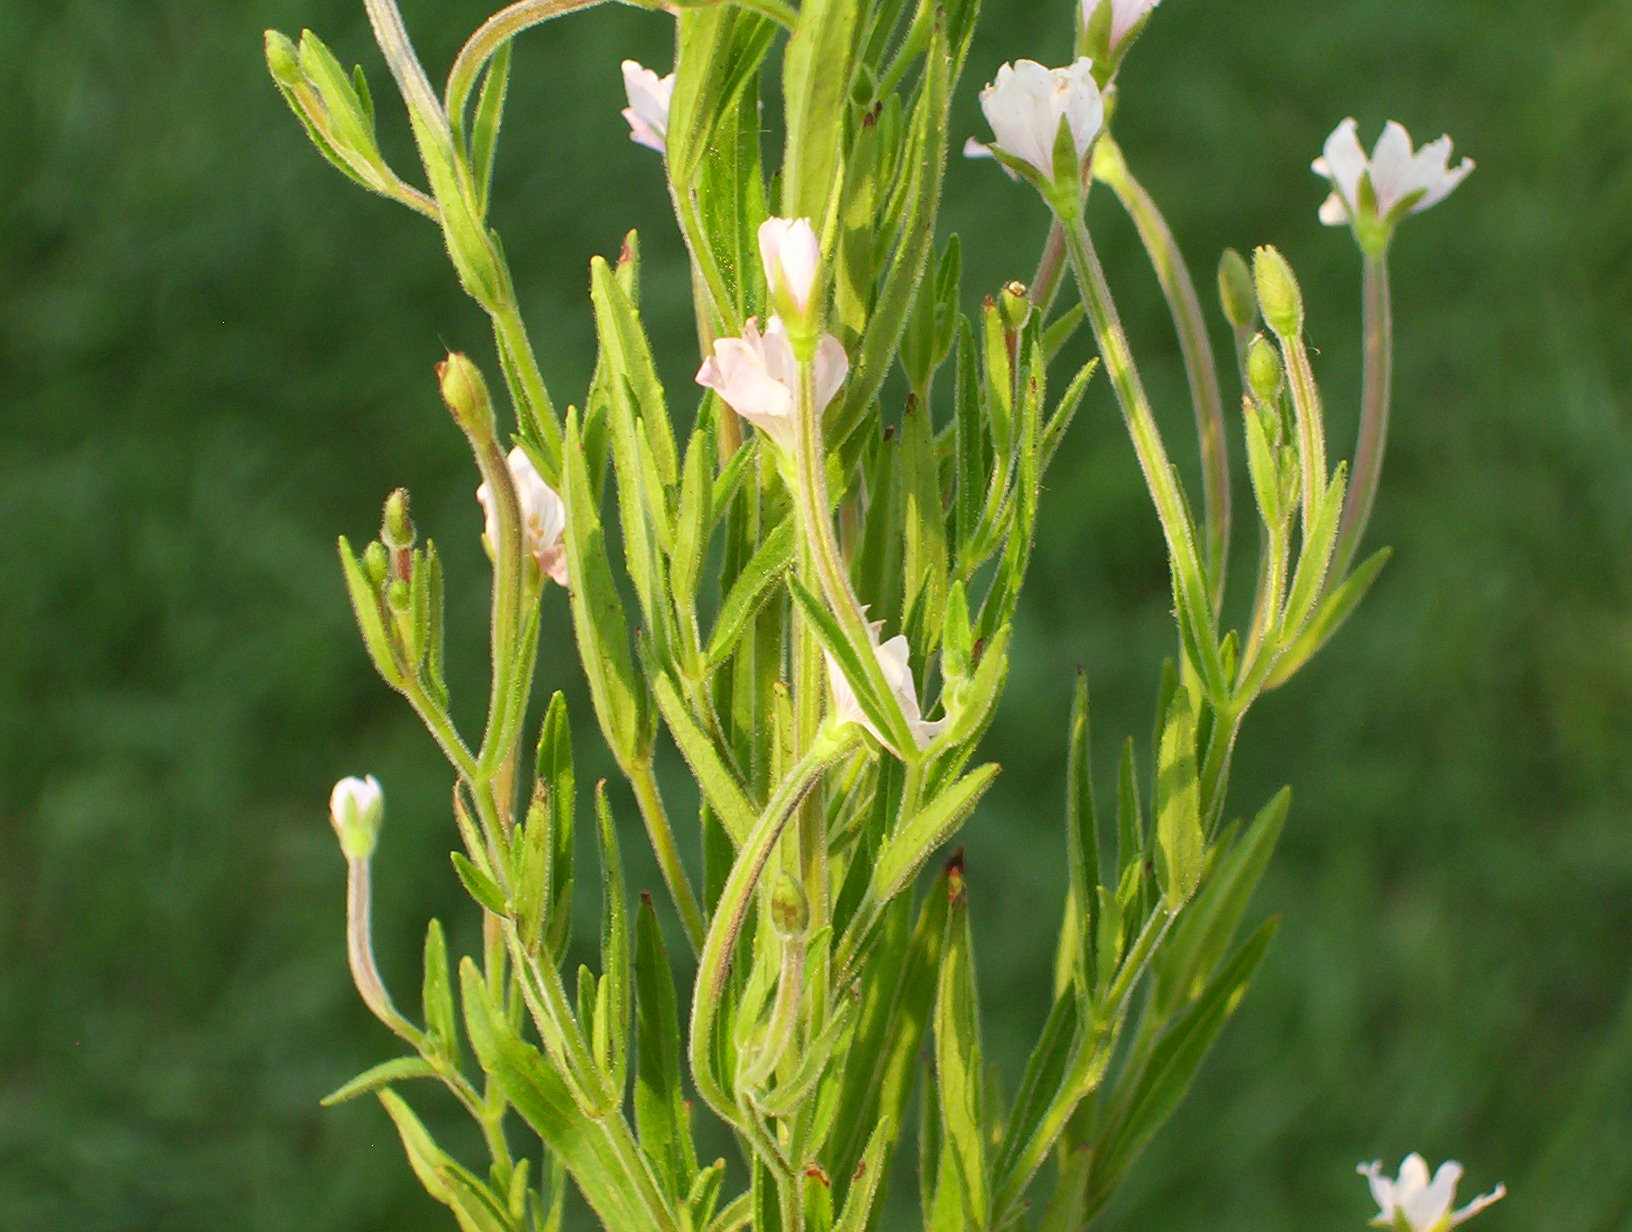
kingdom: Plantae
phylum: Tracheophyta
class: Magnoliopsida
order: Myrtales
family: Onagraceae
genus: Epilobium
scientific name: Epilobium densum
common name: Downy willowherb
